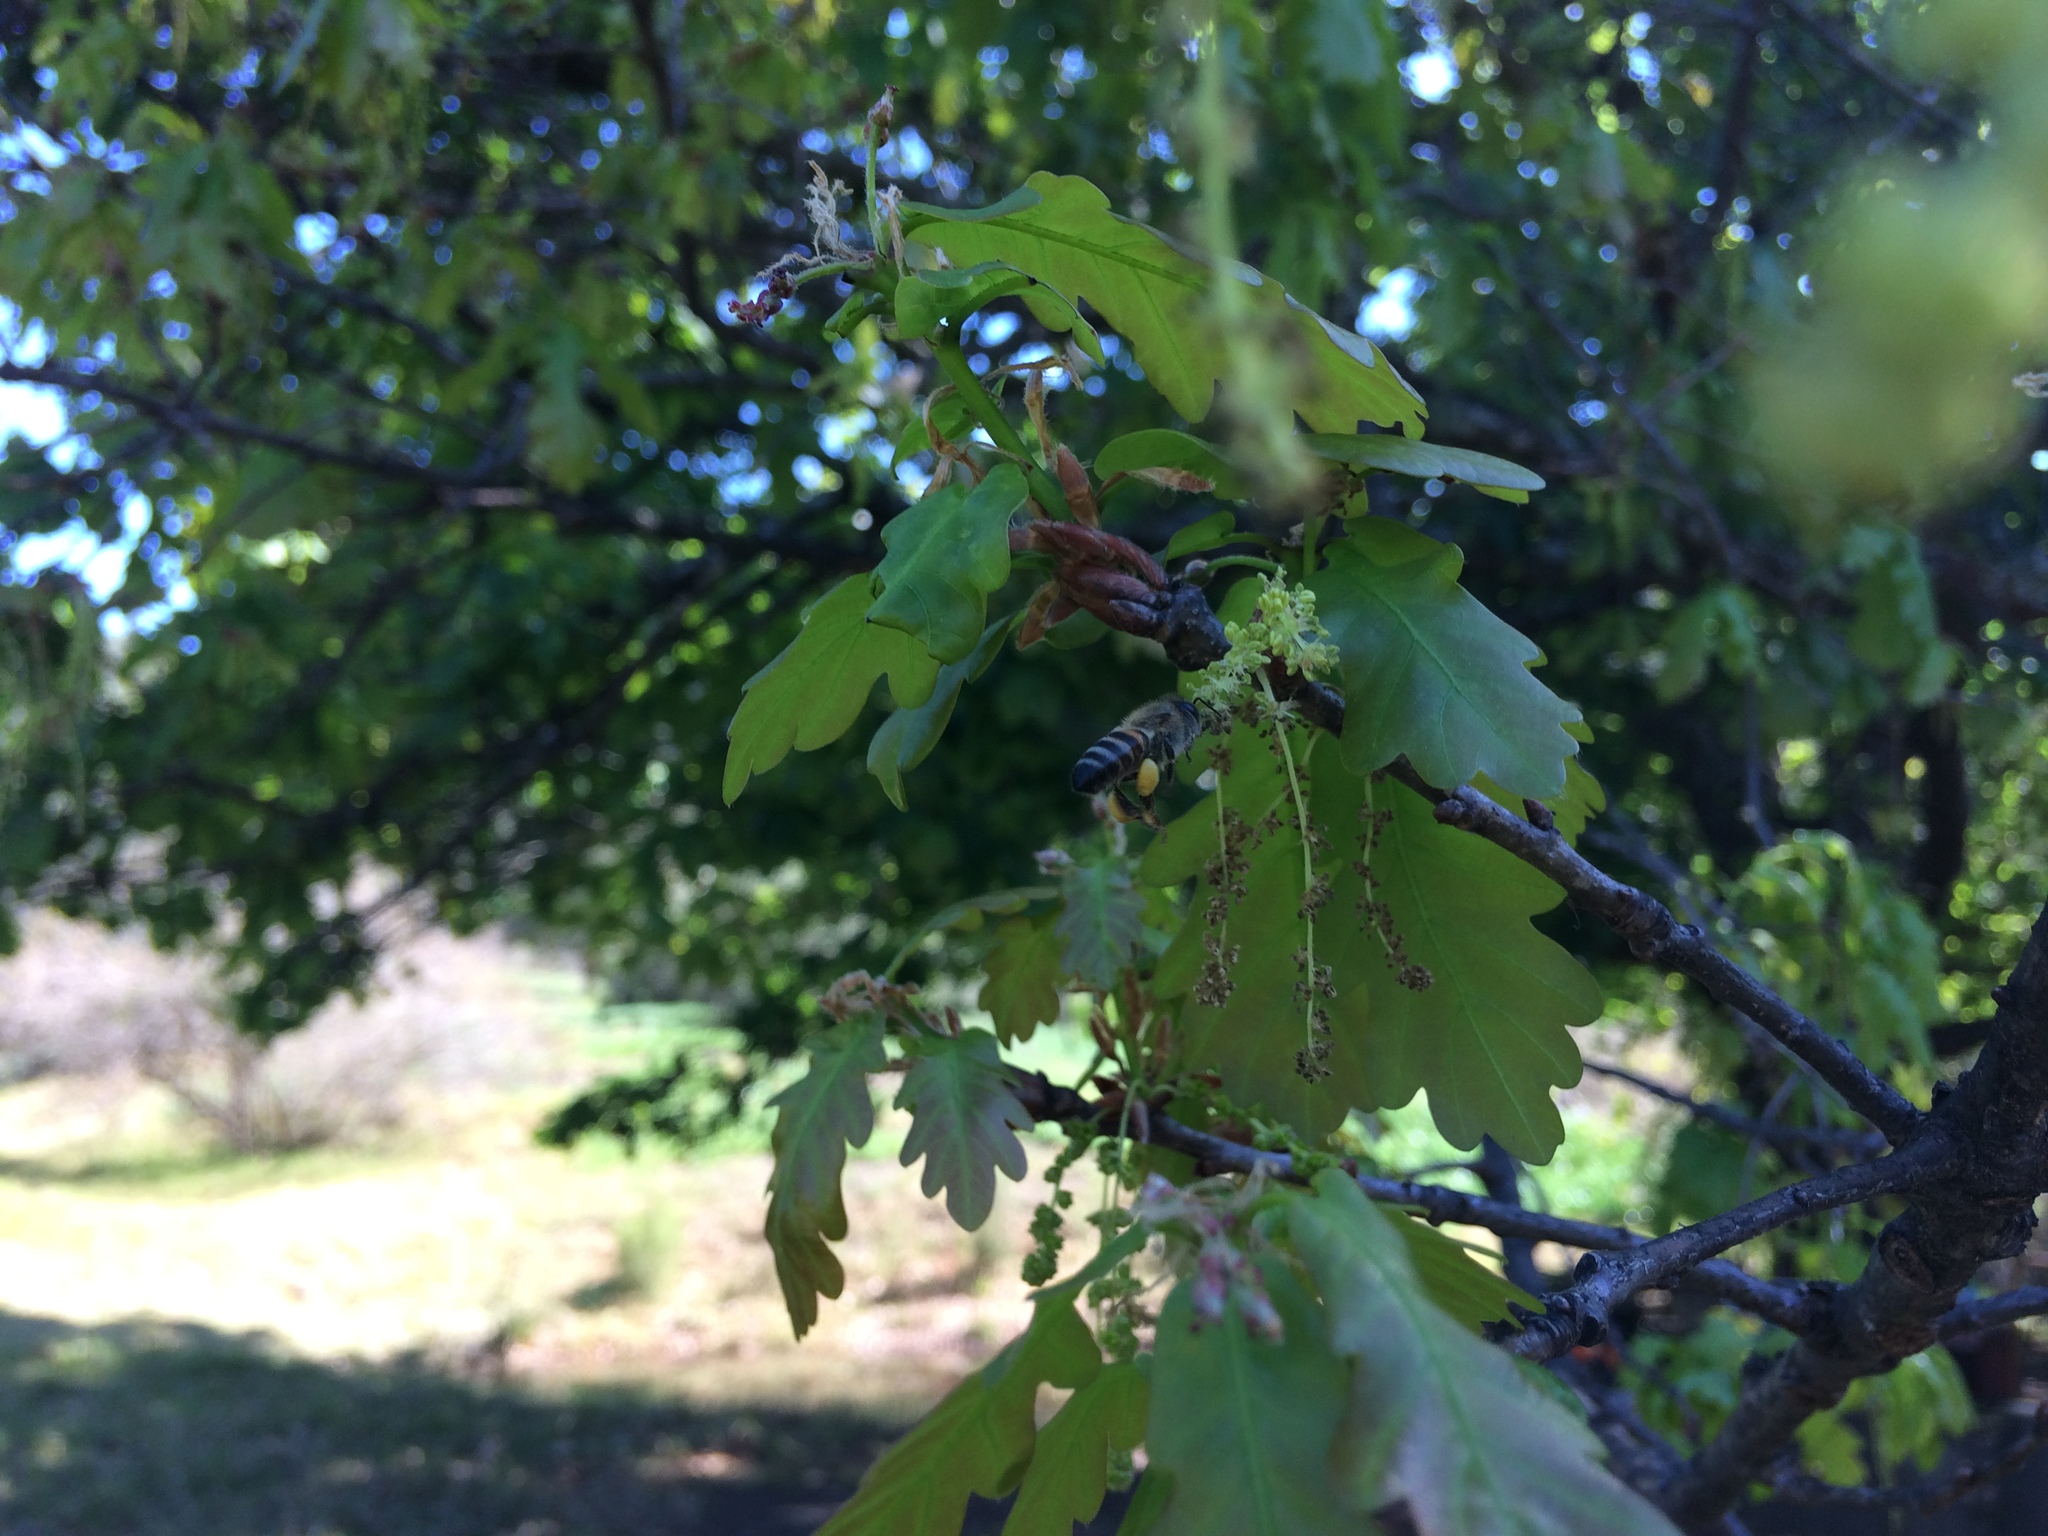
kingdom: Animalia
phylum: Arthropoda
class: Insecta
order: Hymenoptera
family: Apidae
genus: Apis
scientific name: Apis mellifera
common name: Honey bee
